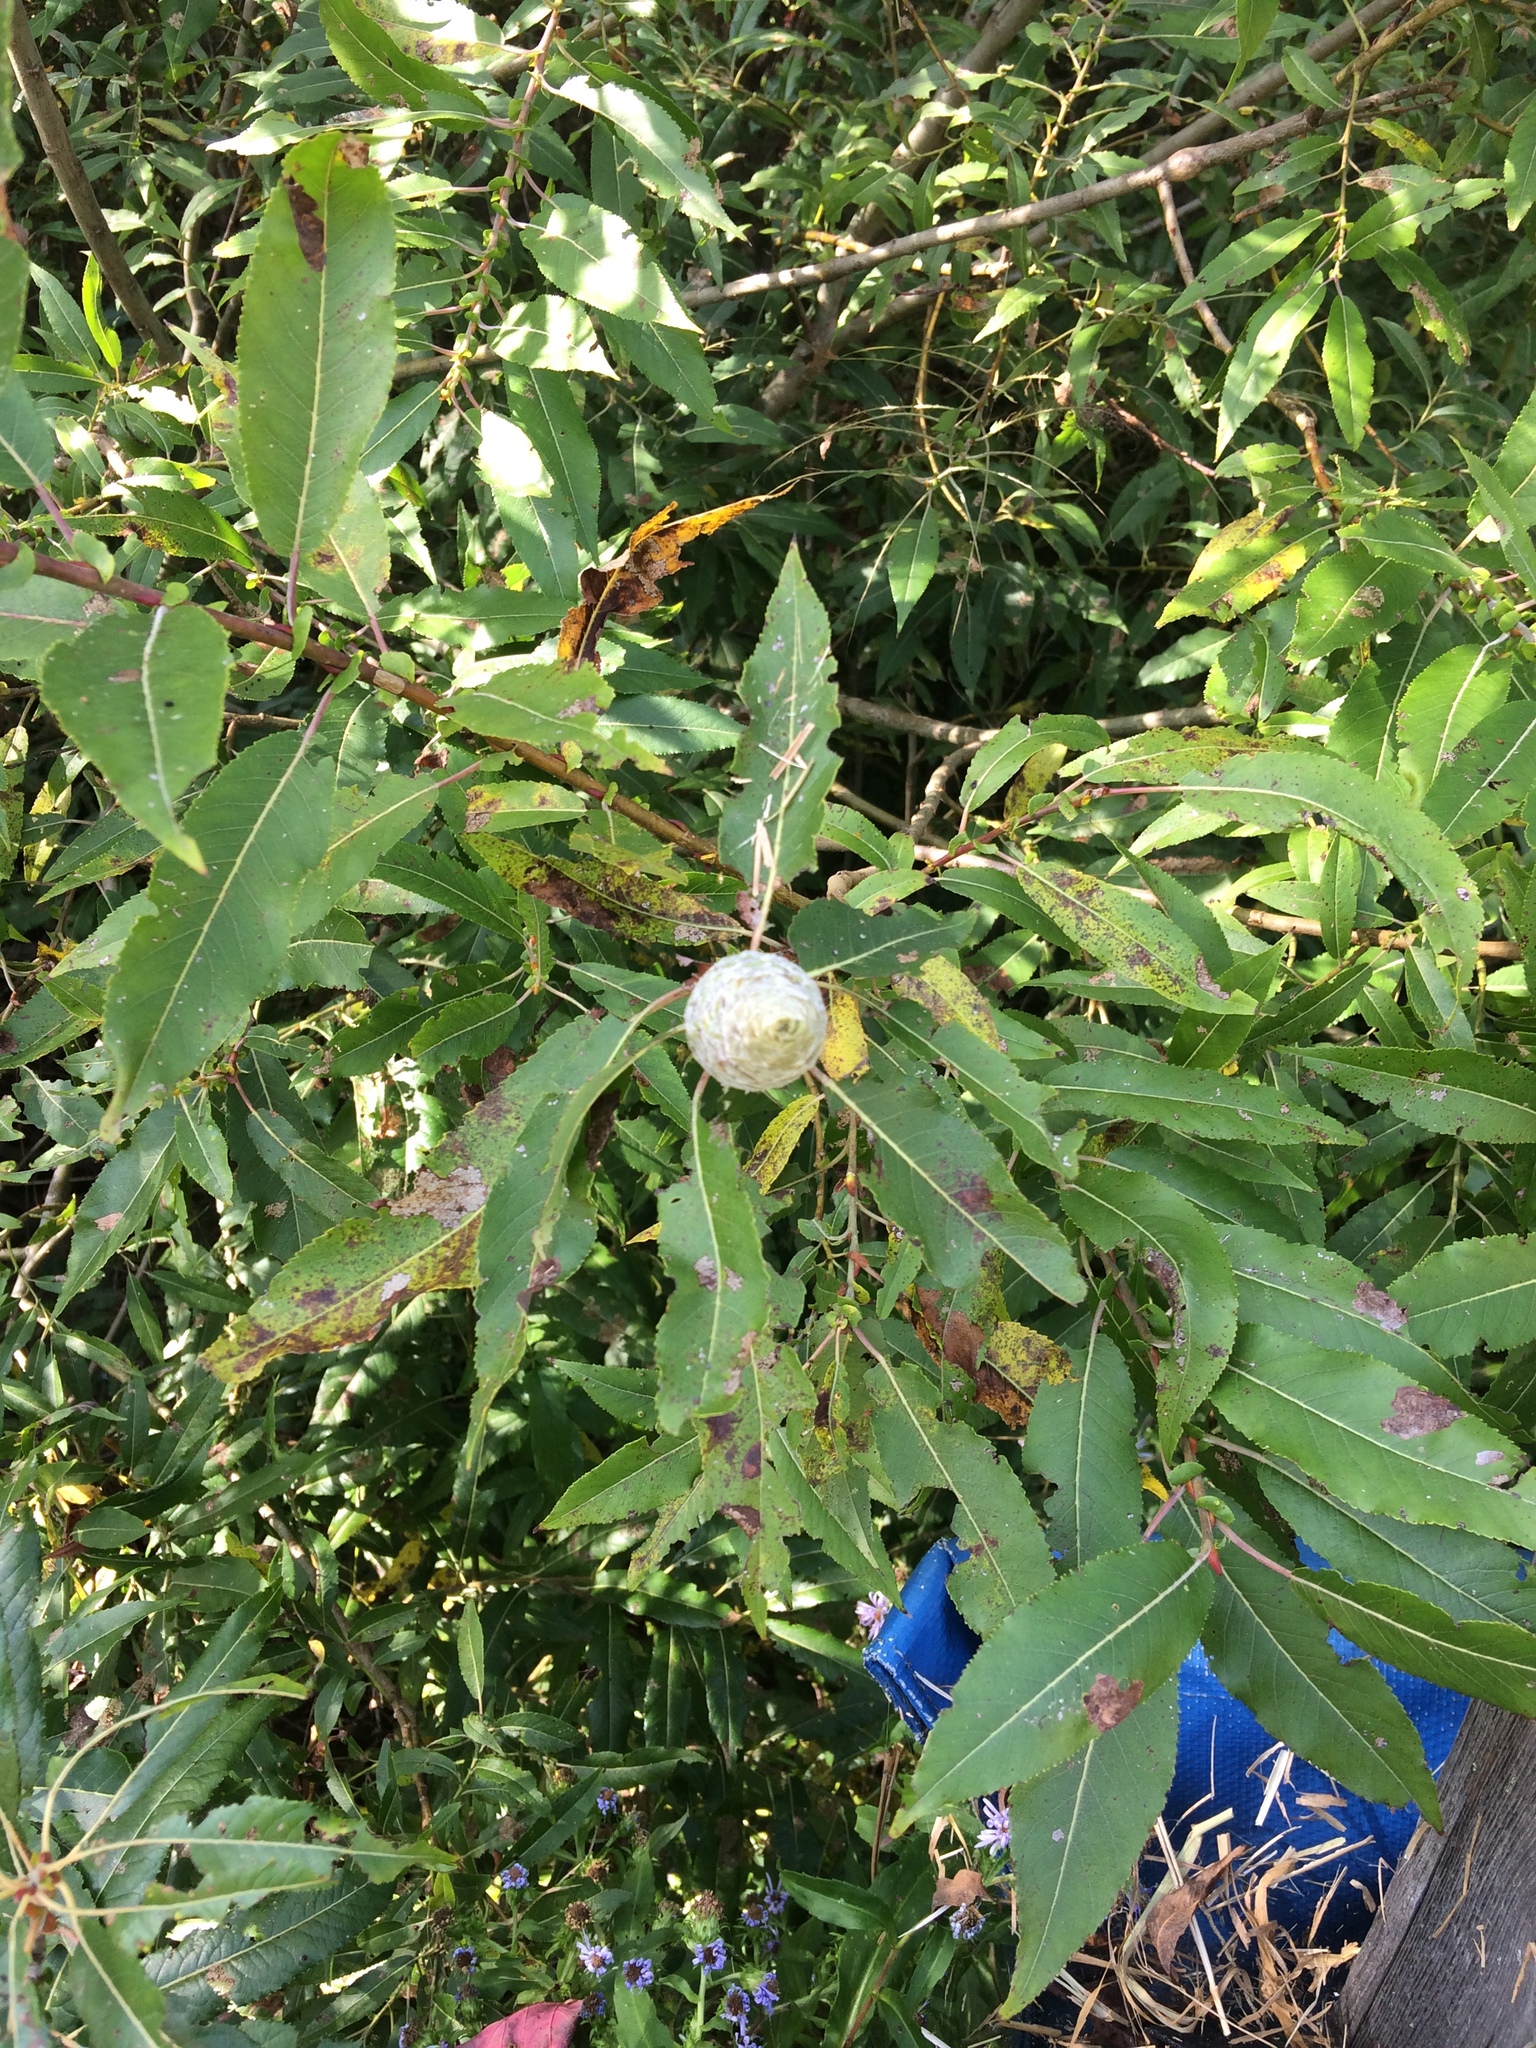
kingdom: Plantae
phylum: Tracheophyta
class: Magnoliopsida
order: Malpighiales
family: Salicaceae
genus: Salix
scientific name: Salix eriocephala
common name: Heart-leaved willow
